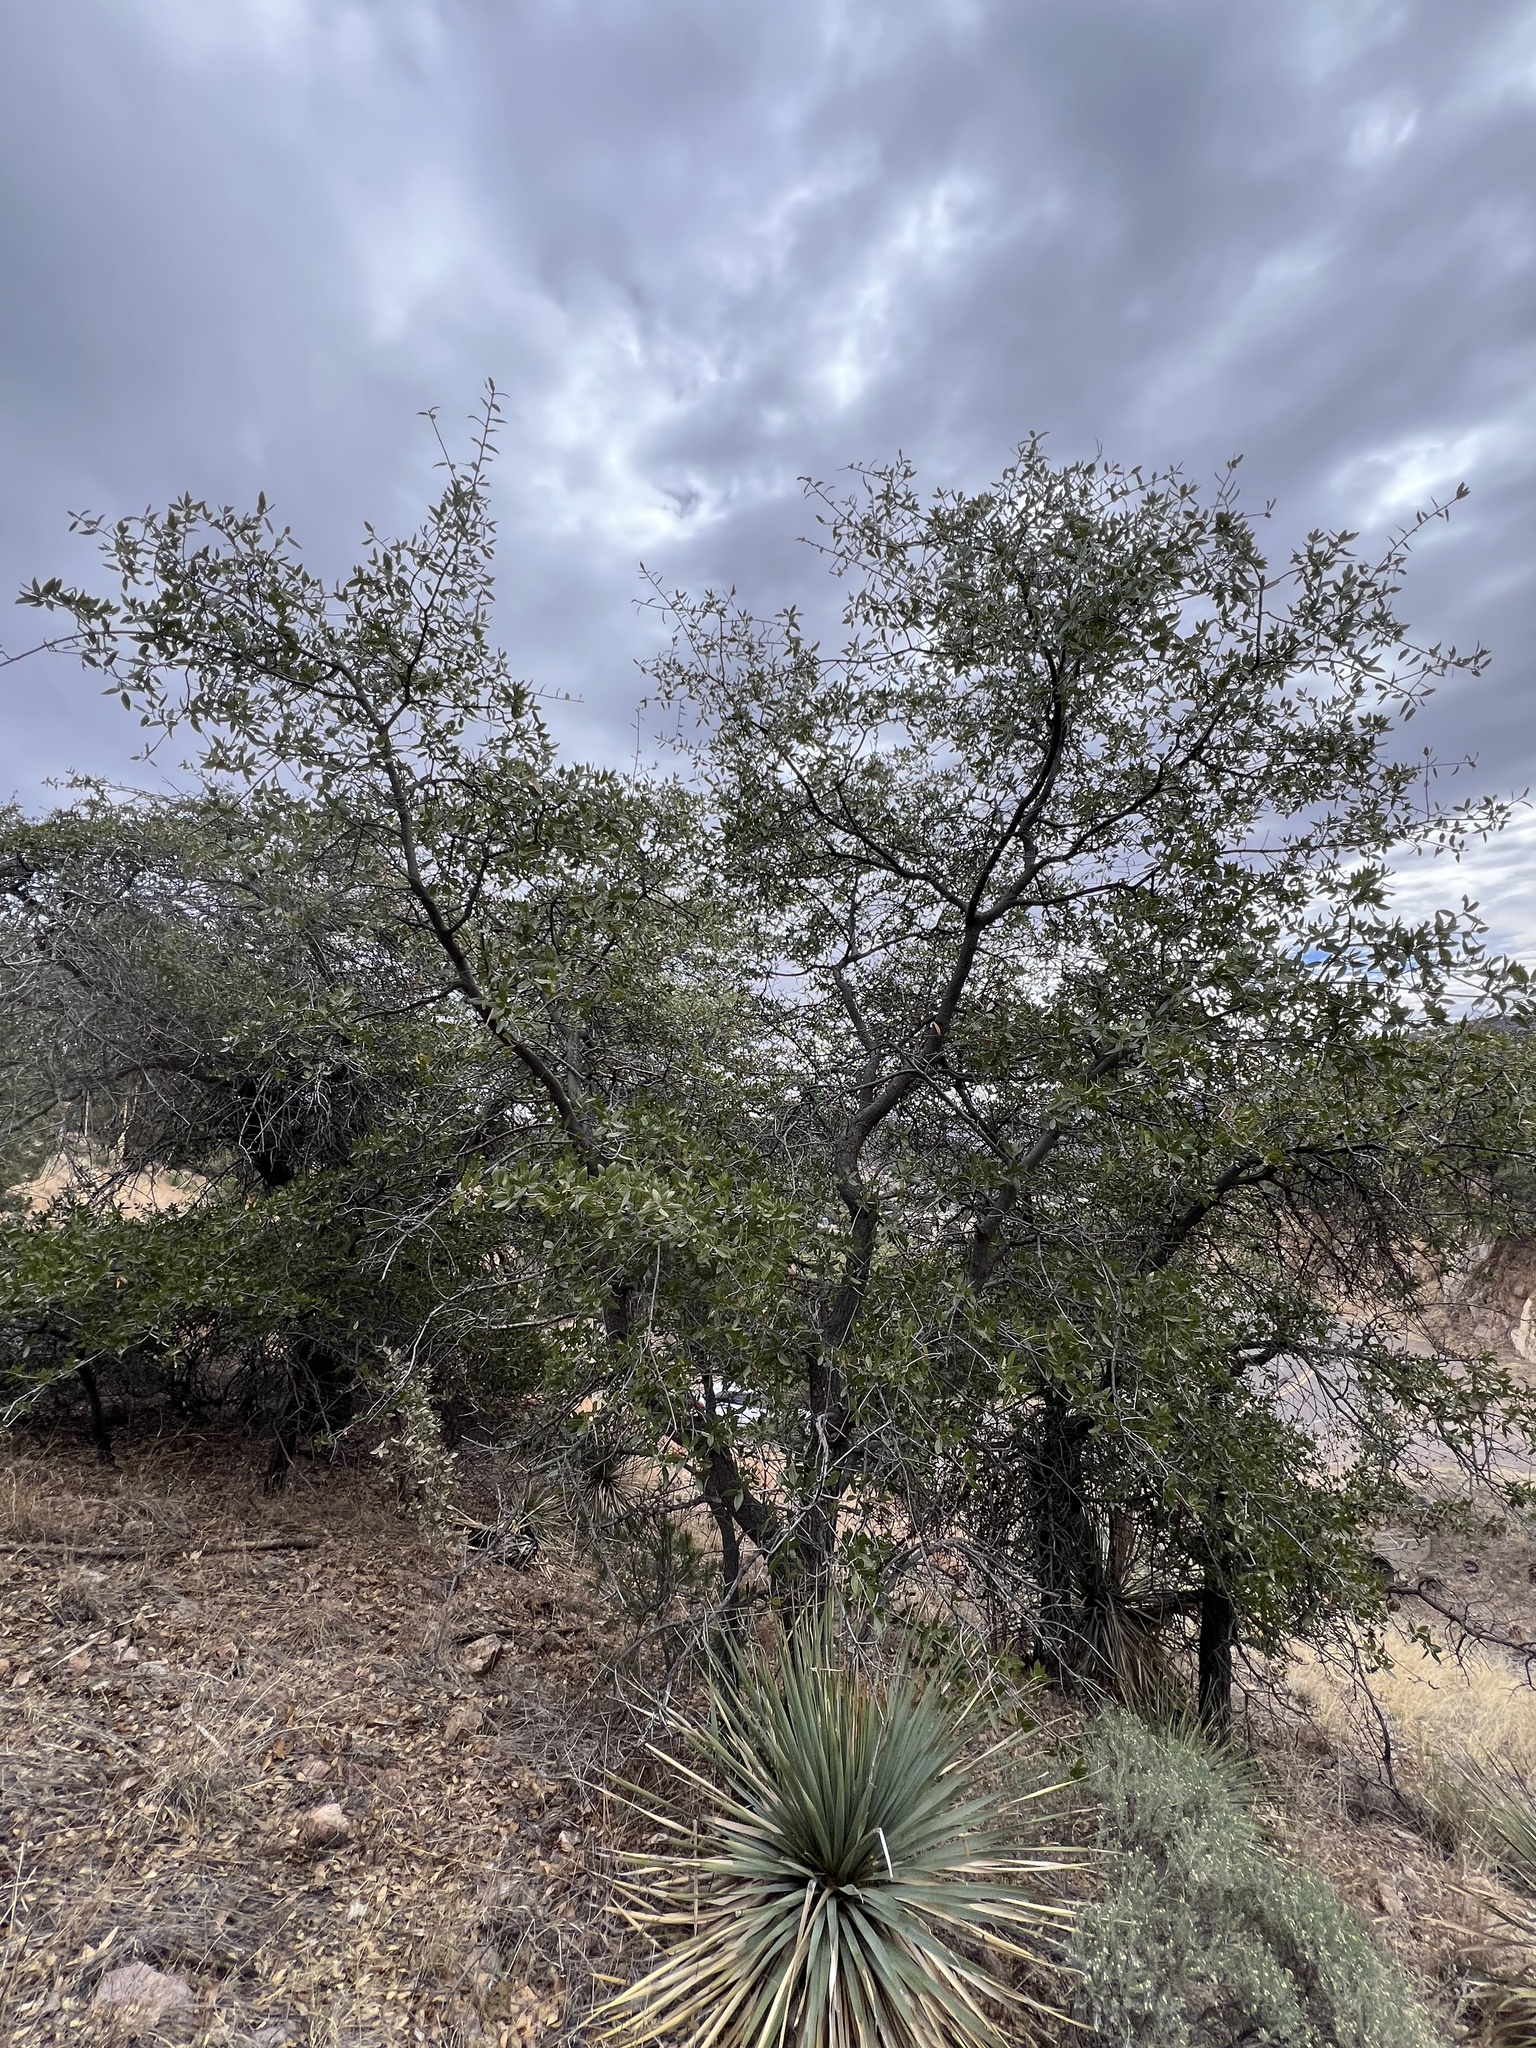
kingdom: Plantae
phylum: Tracheophyta
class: Magnoliopsida
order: Fagales
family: Fagaceae
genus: Quercus
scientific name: Quercus emoryi
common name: Emory oak
